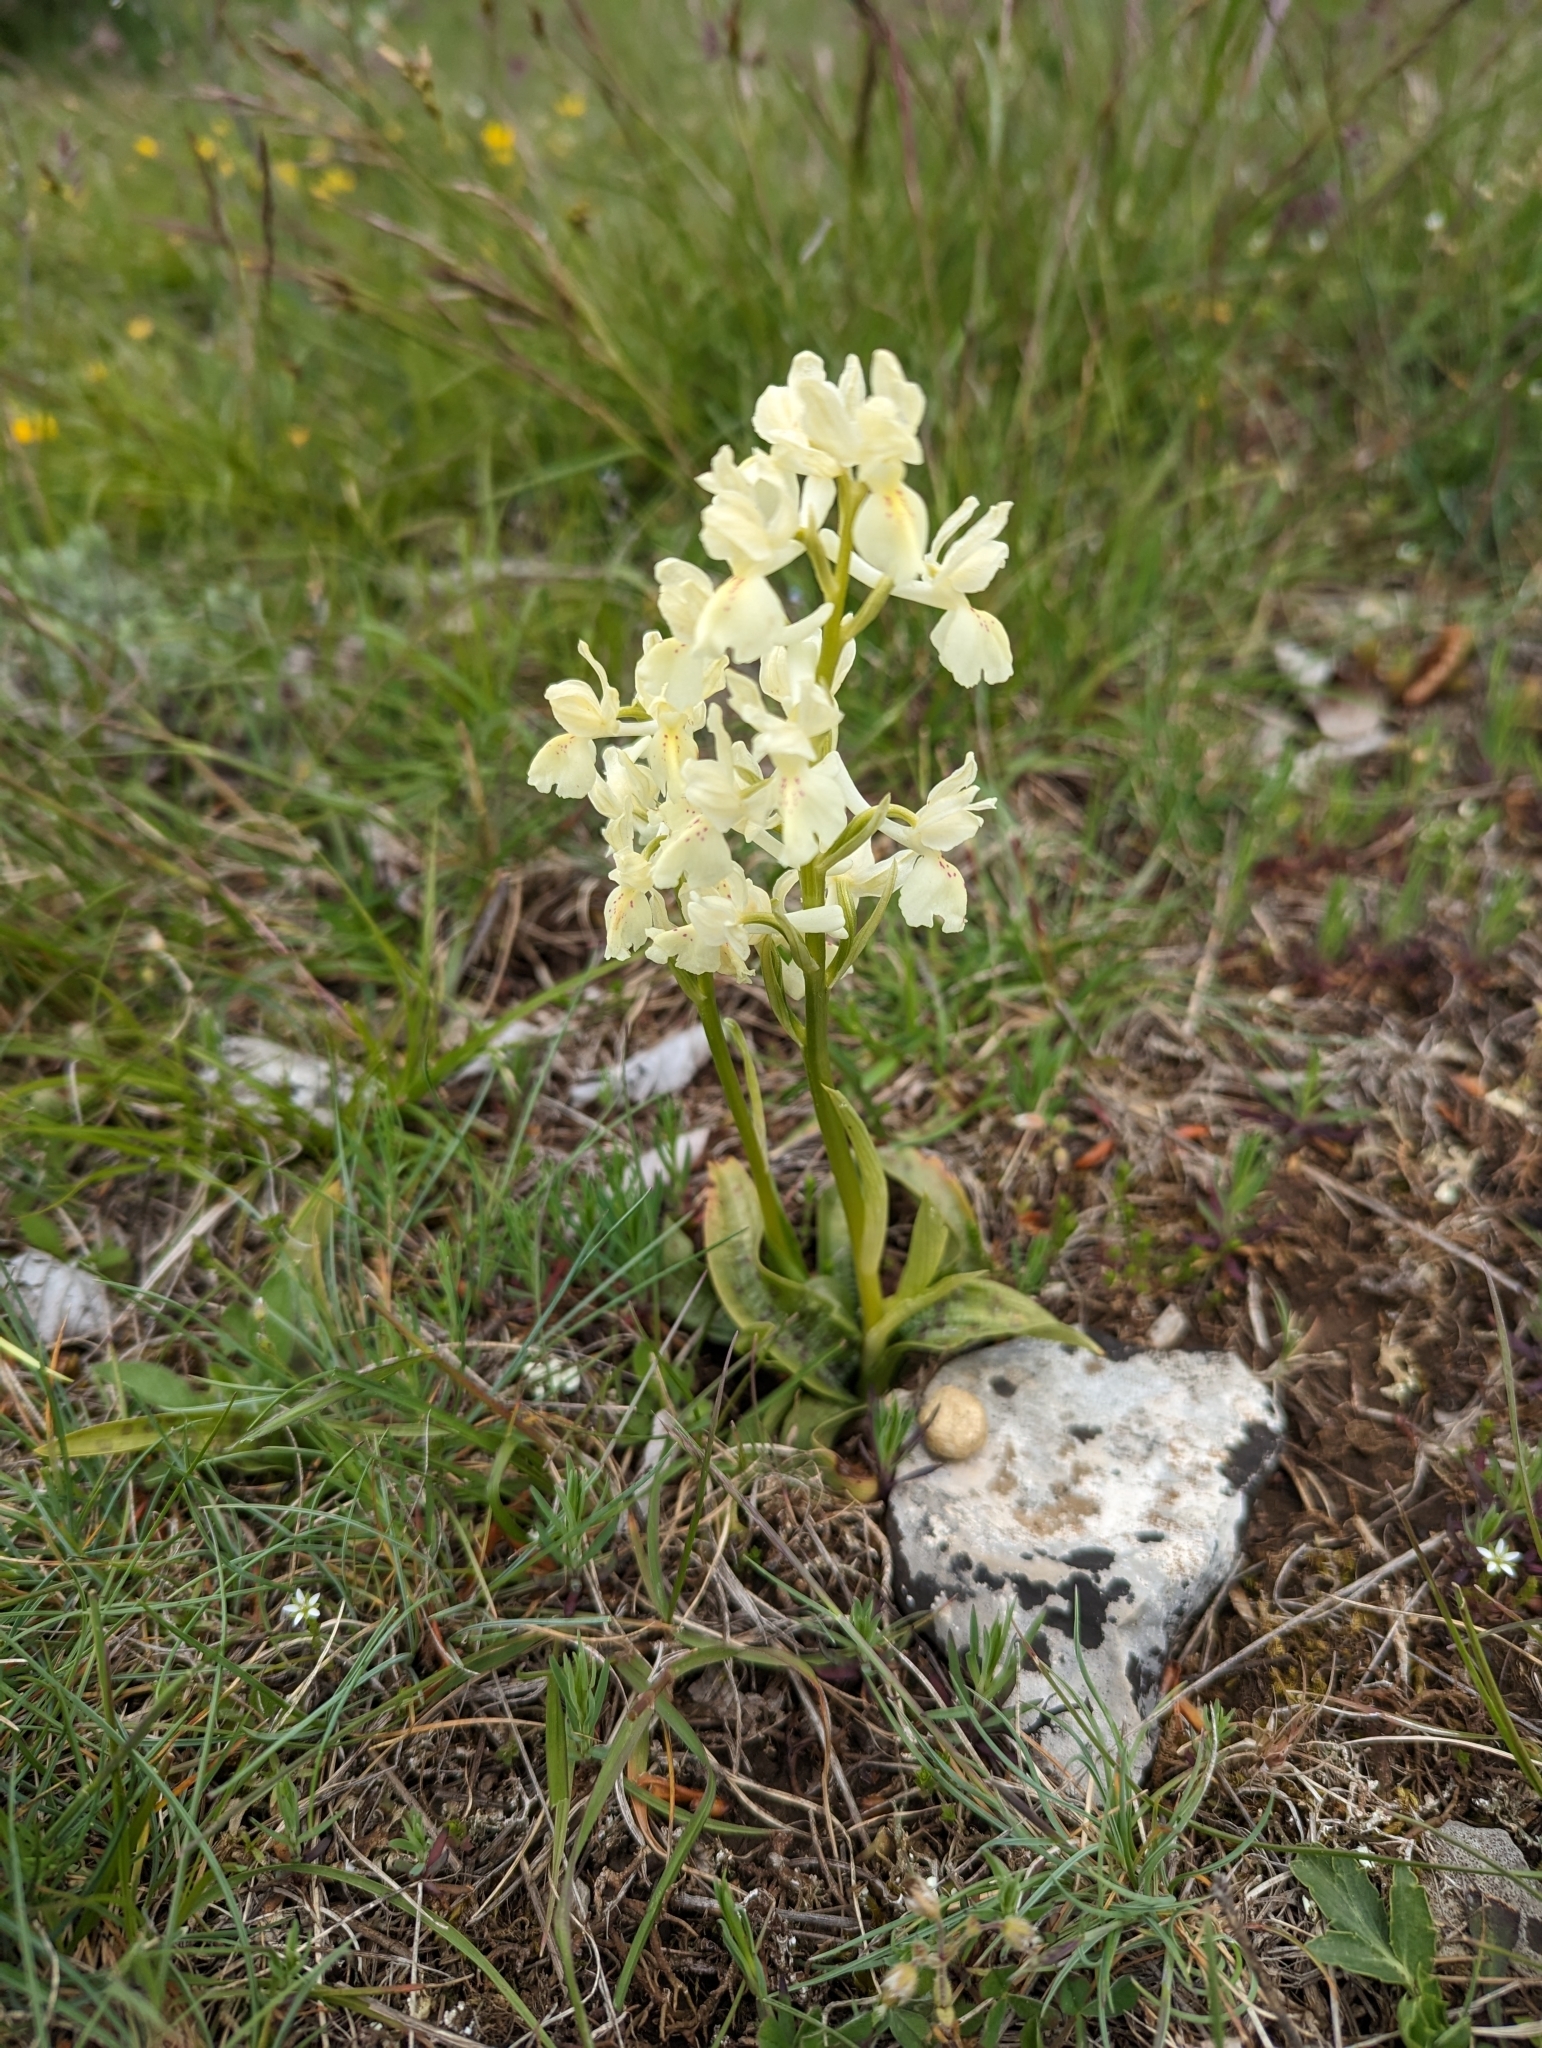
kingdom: Plantae
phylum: Tracheophyta
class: Liliopsida
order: Asparagales
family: Orchidaceae
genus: Orchis
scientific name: Orchis provincialis
